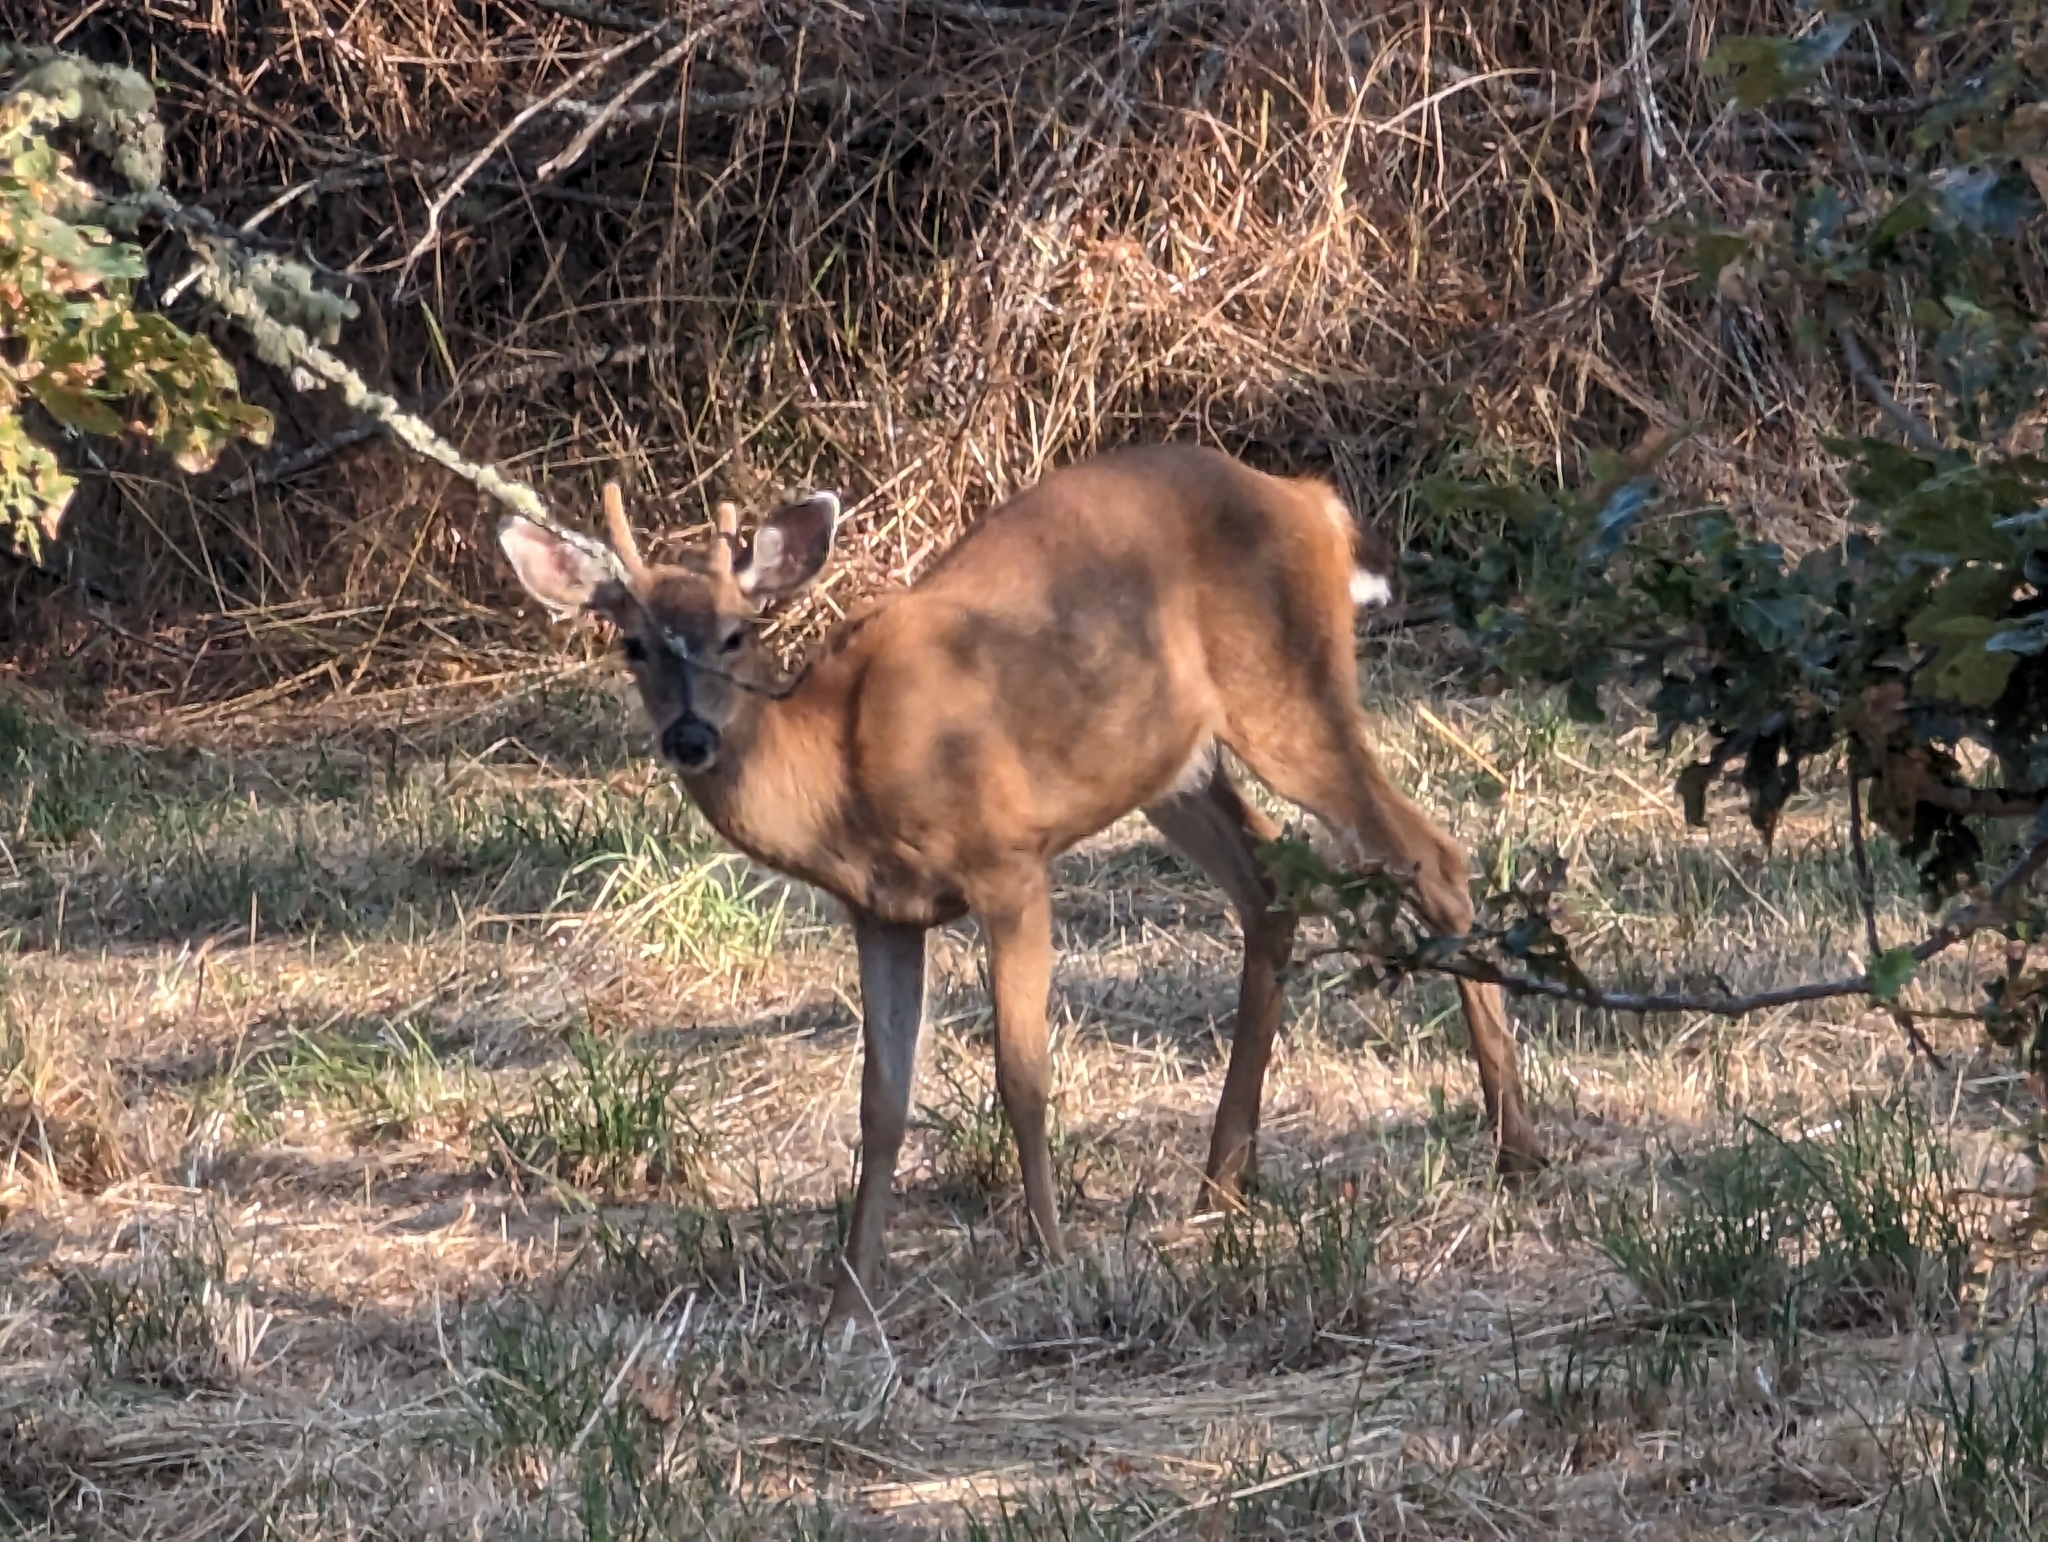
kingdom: Animalia
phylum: Chordata
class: Mammalia
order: Artiodactyla
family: Cervidae
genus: Odocoileus
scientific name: Odocoileus hemionus
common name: Mule deer
